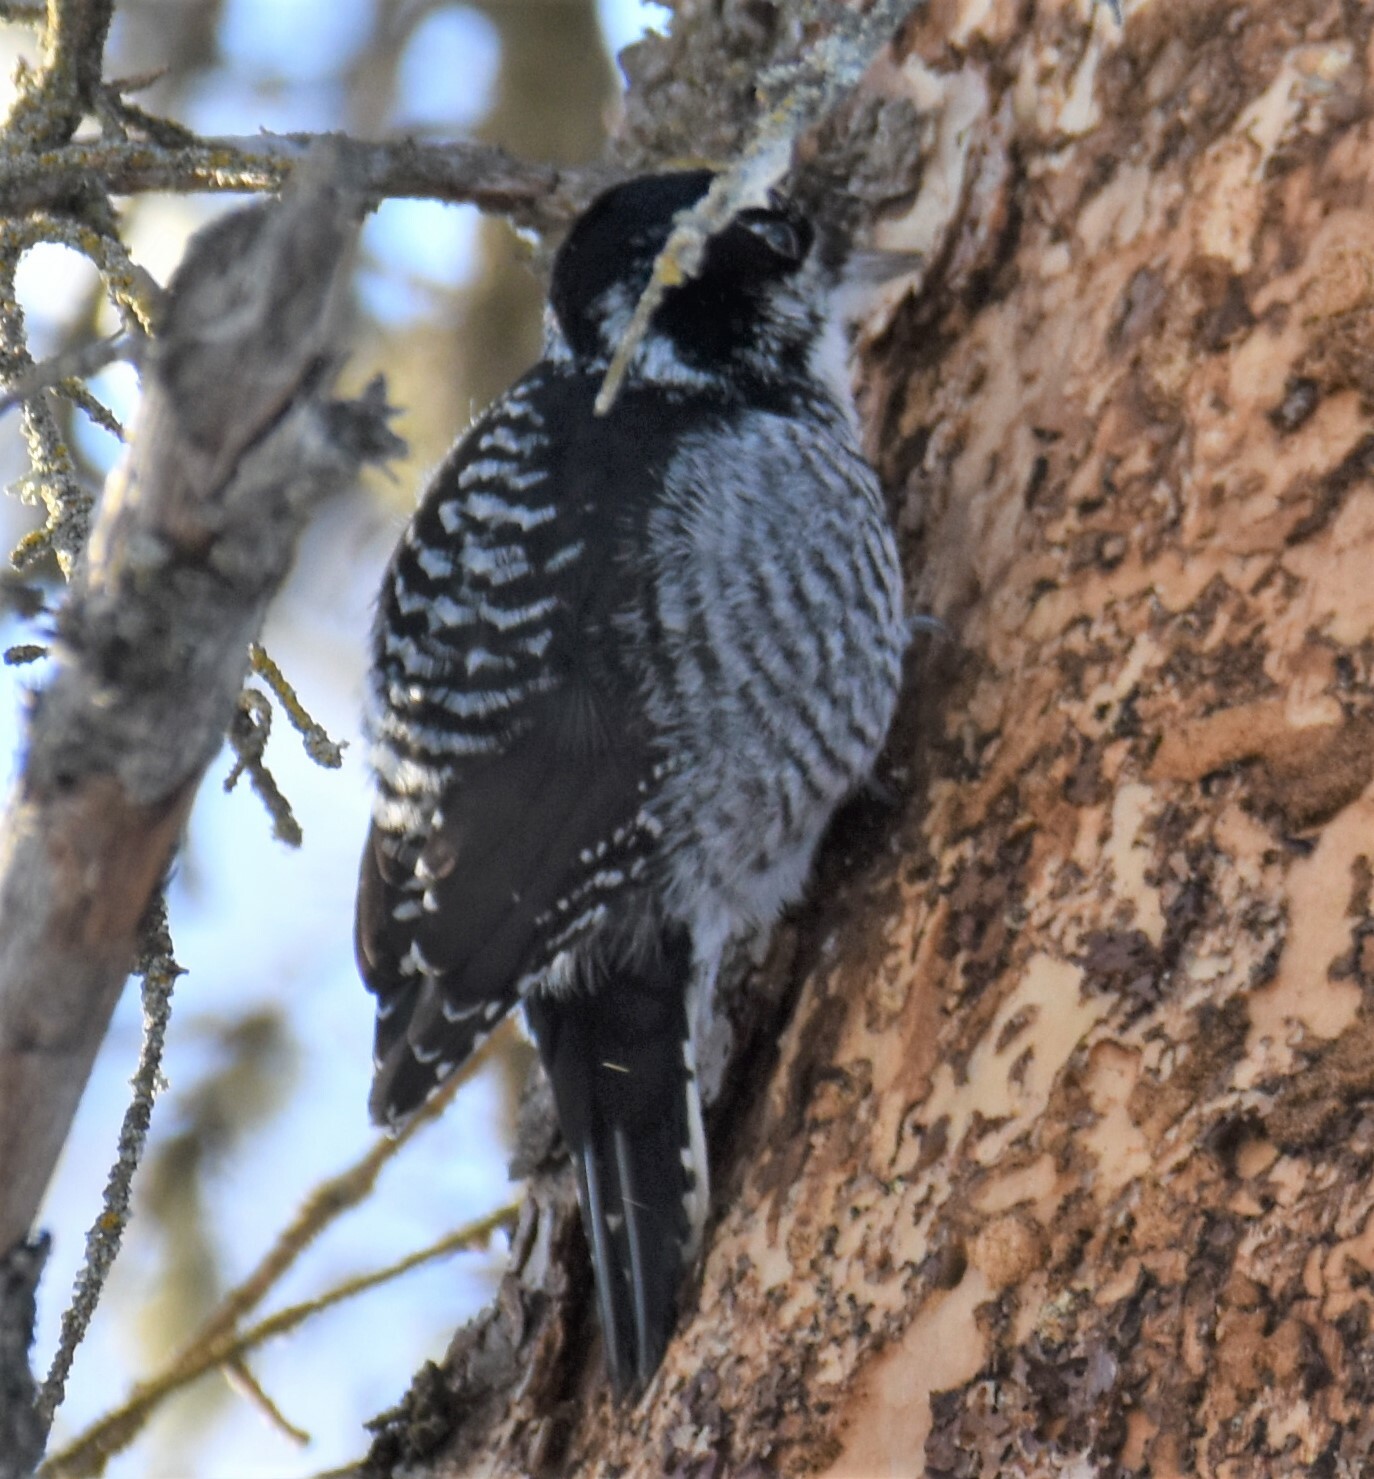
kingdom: Animalia
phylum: Chordata
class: Aves
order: Piciformes
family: Picidae
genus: Picoides
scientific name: Picoides dorsalis
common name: American three-toed woodpecker
